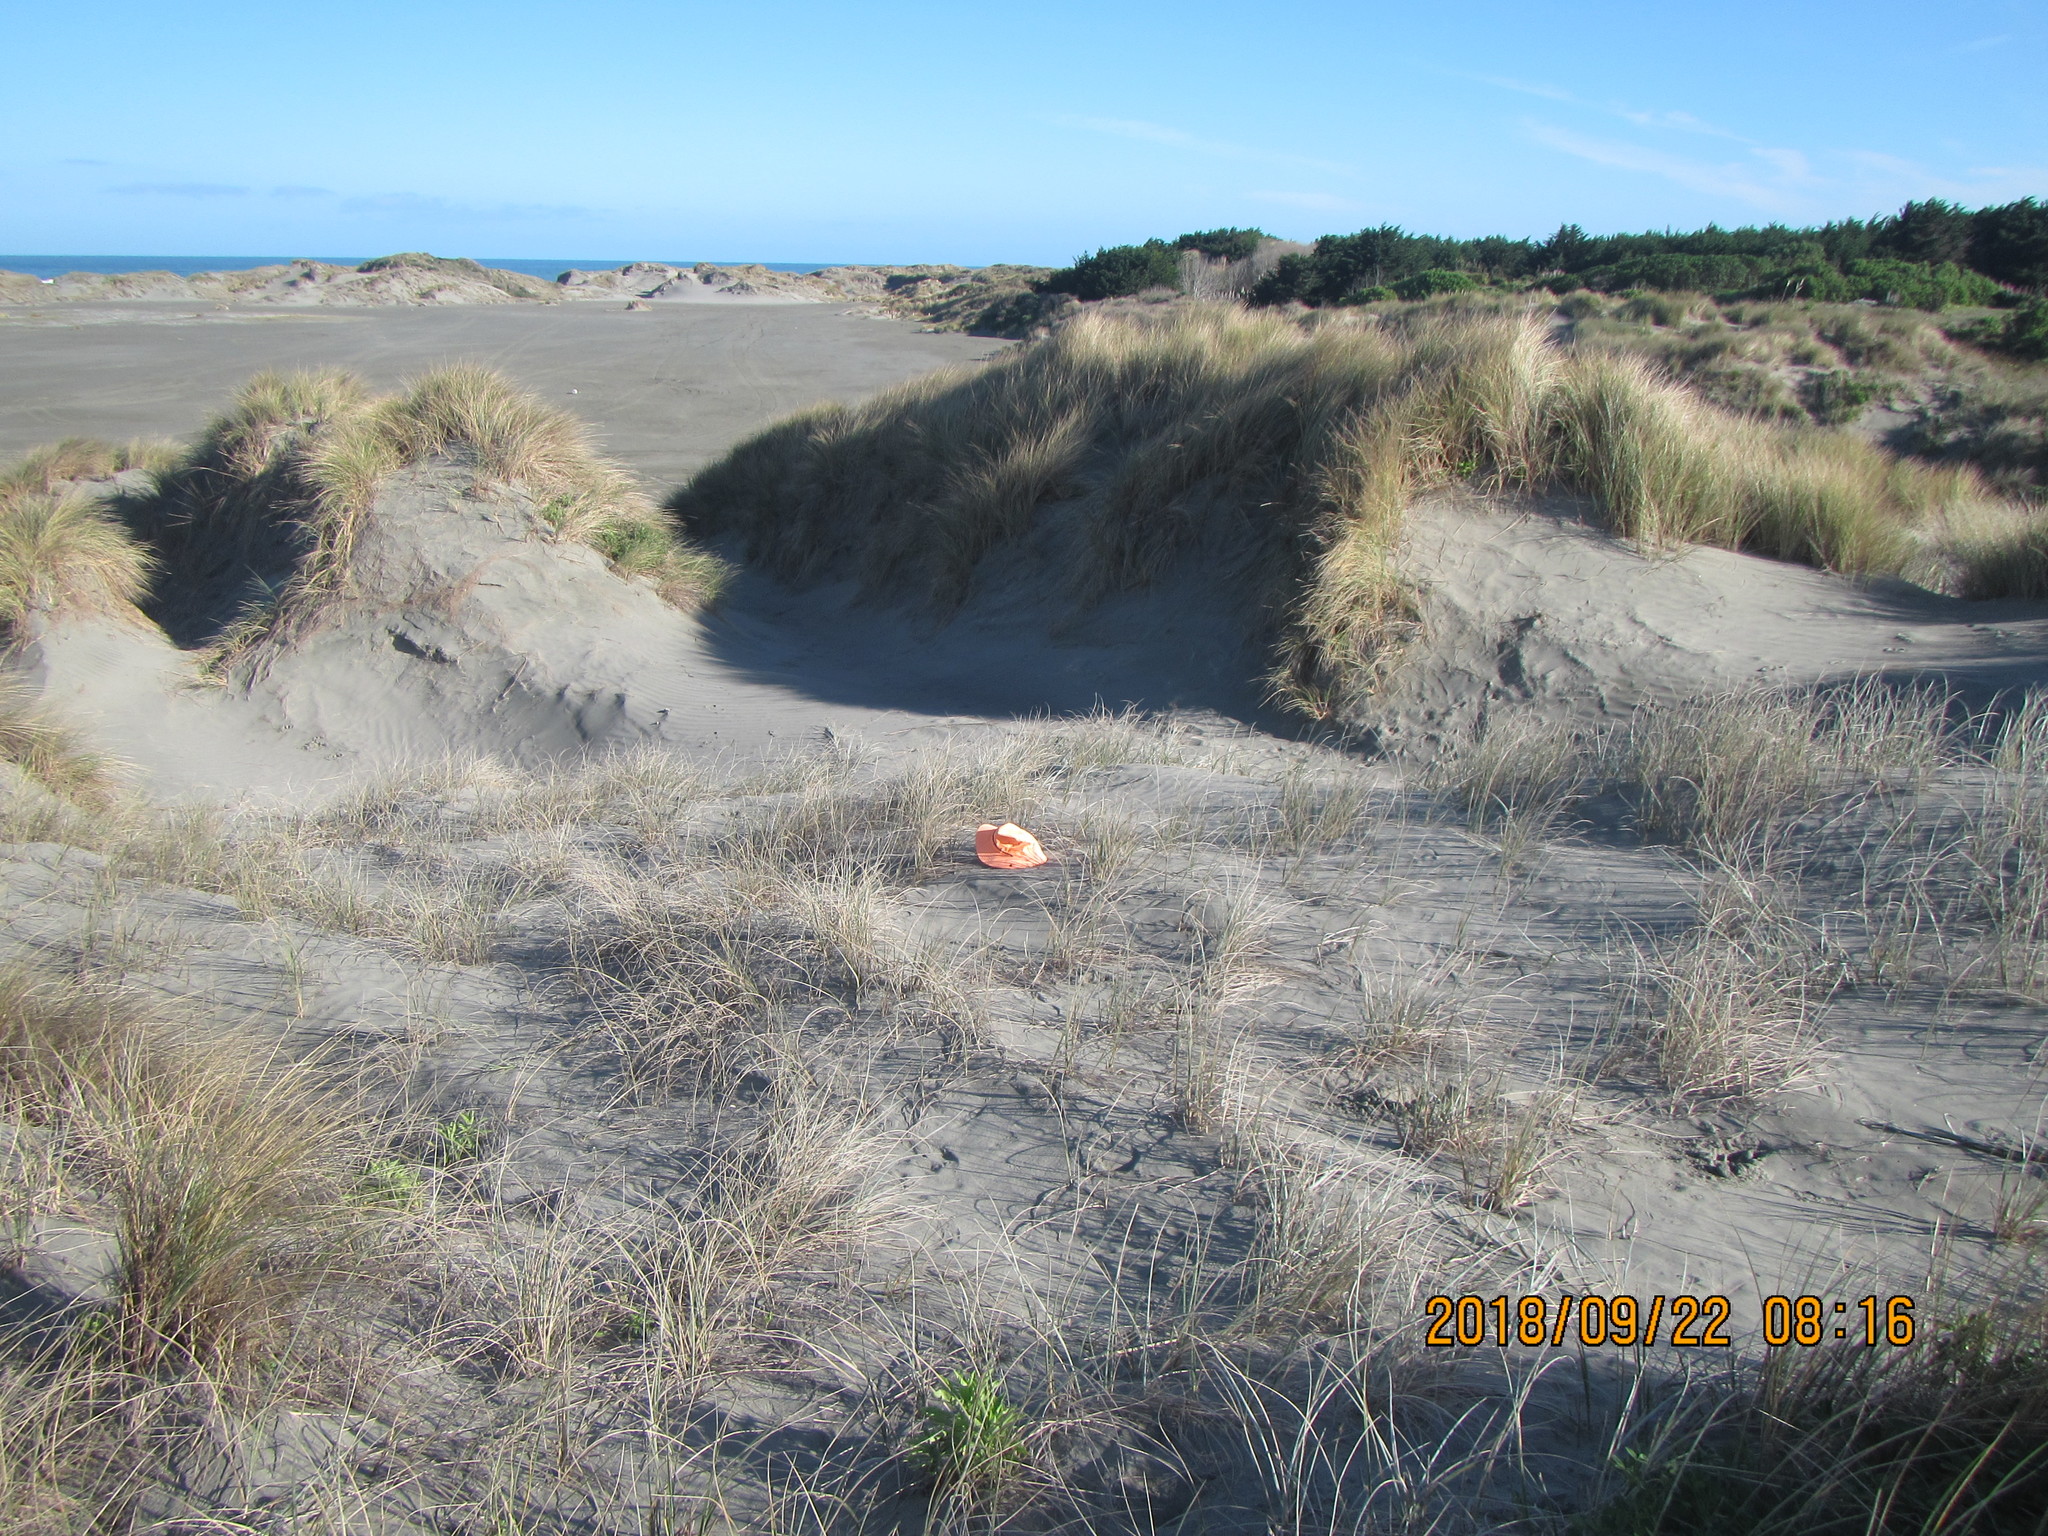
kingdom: Plantae
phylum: Tracheophyta
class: Liliopsida
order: Poales
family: Poaceae
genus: Spinifex
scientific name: Spinifex sericeus
